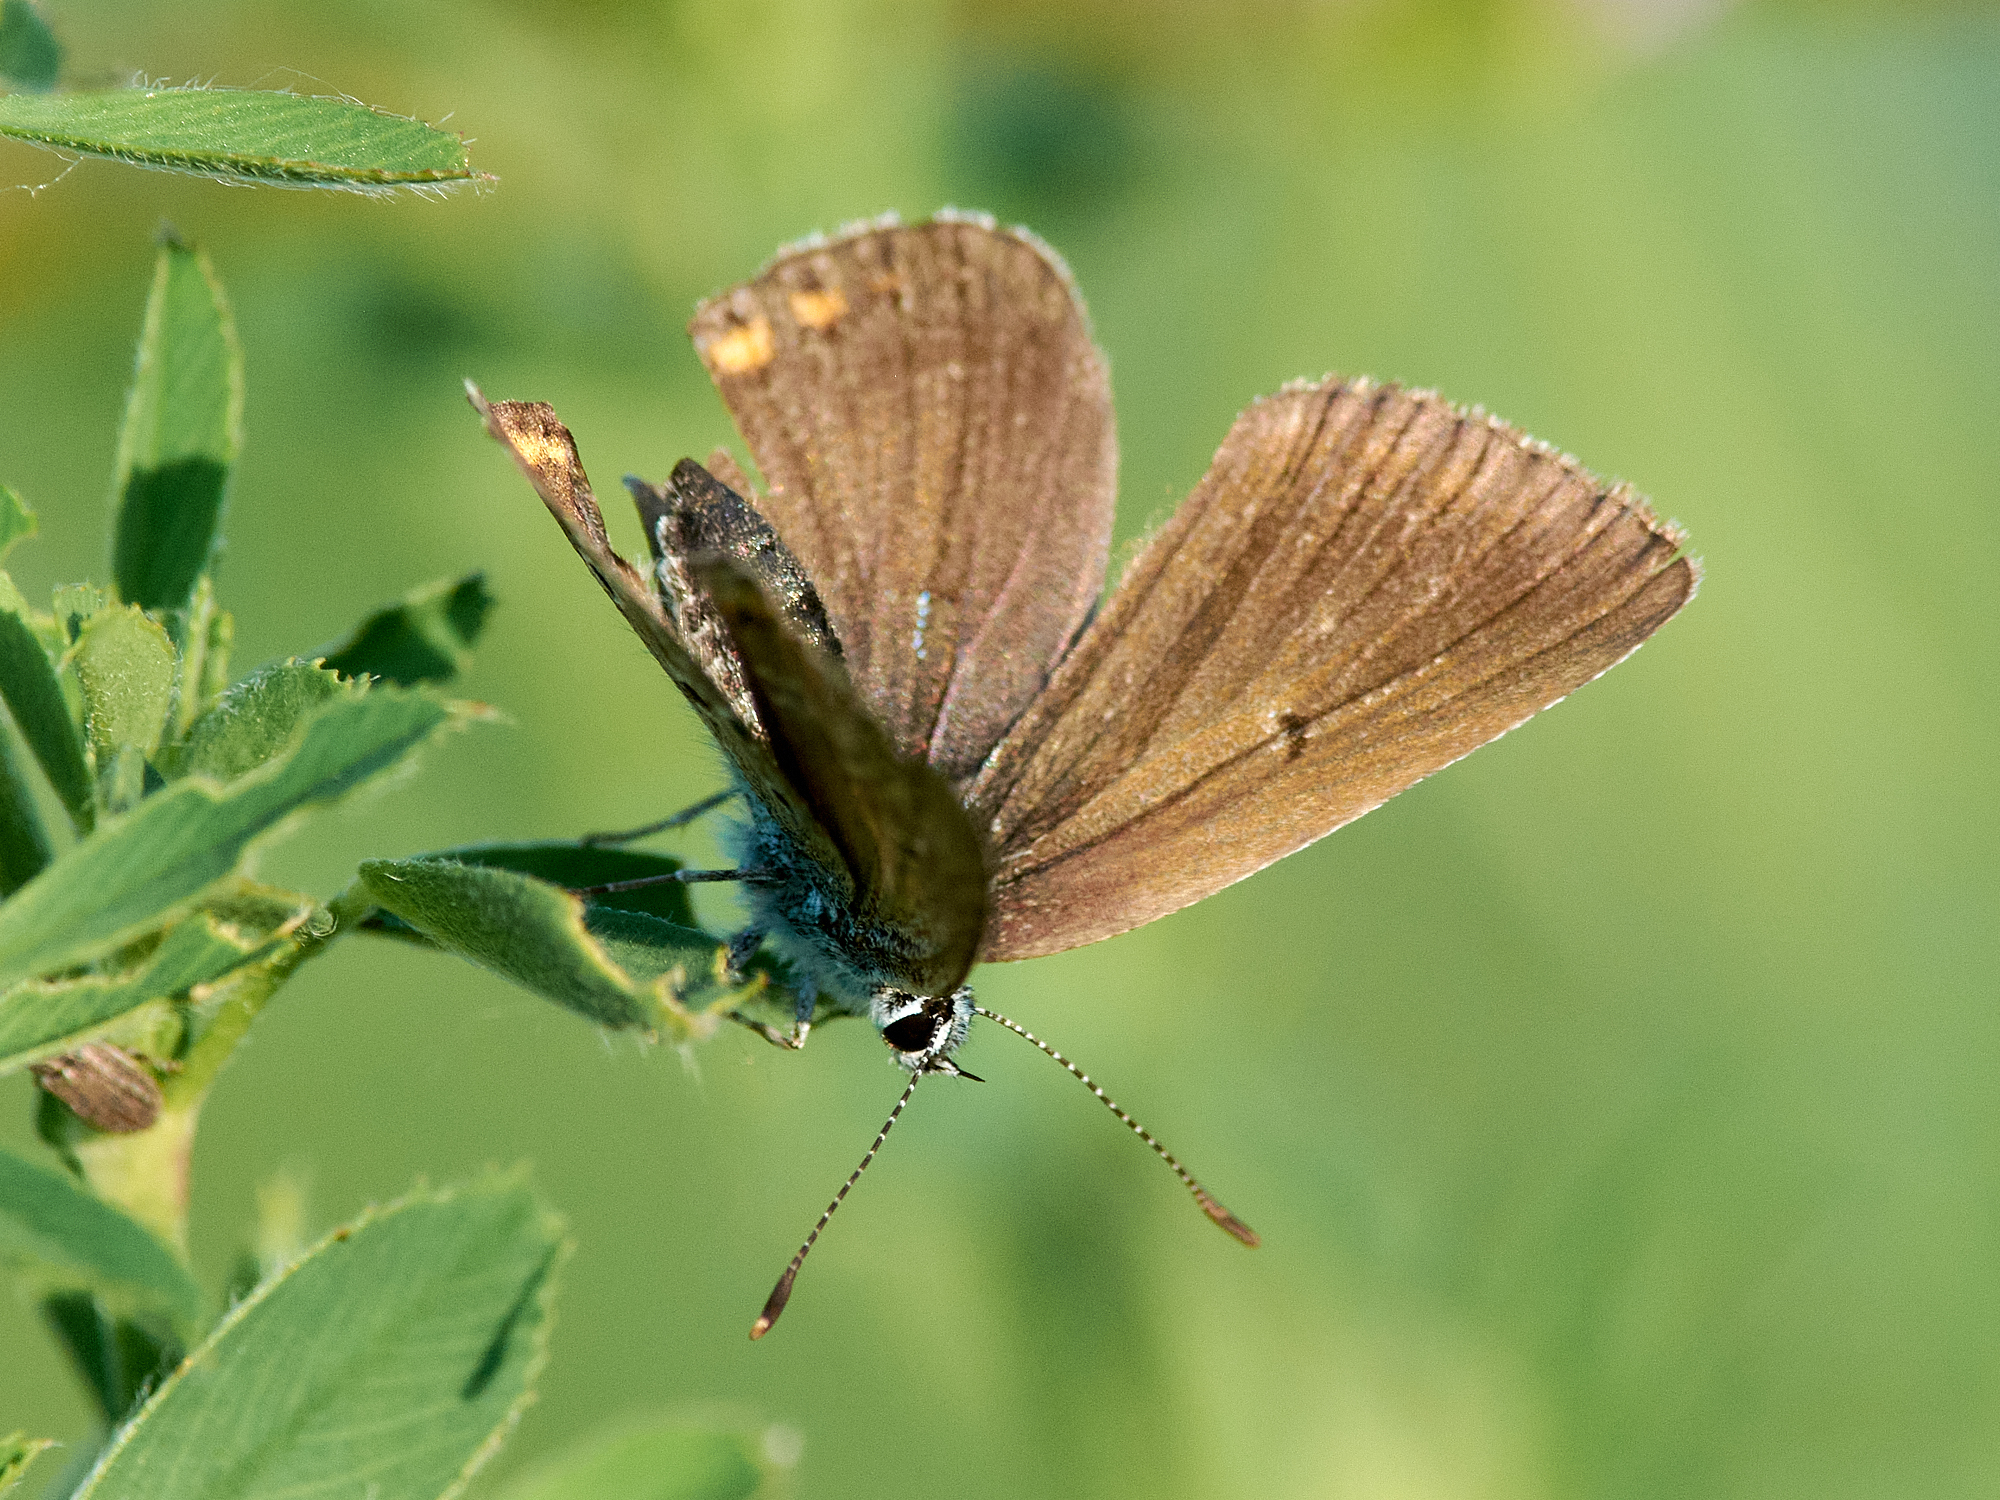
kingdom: Animalia
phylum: Arthropoda
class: Insecta
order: Lepidoptera
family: Lycaenidae
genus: Plebejus
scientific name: Plebejus amanda
